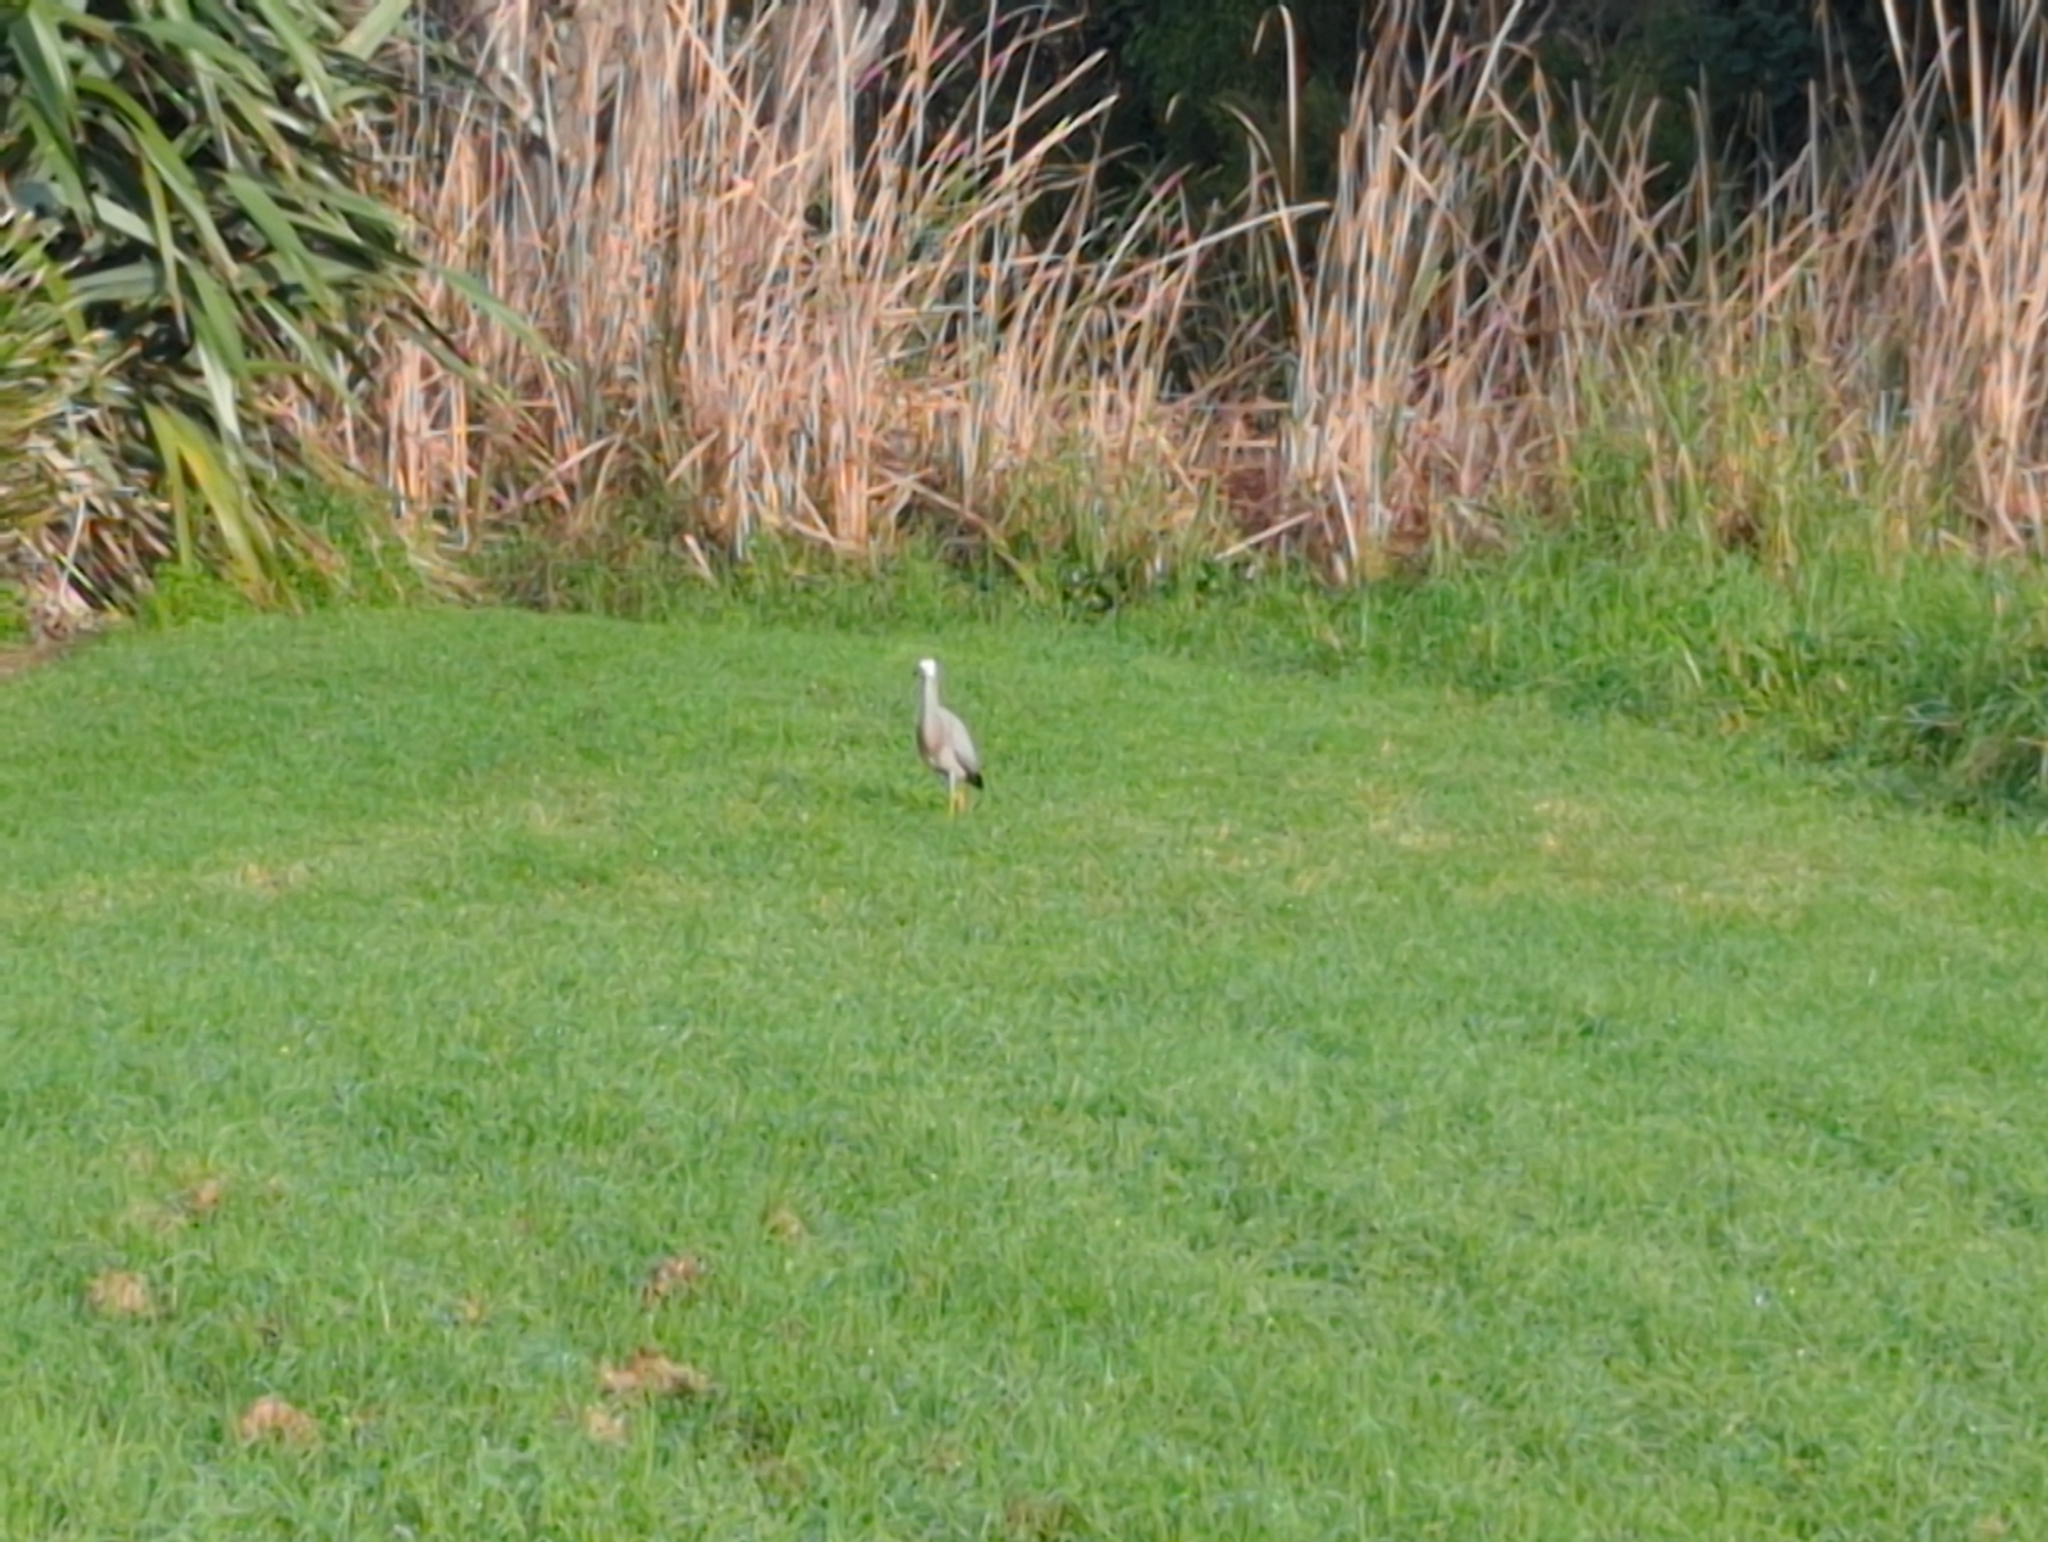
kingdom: Animalia
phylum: Chordata
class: Aves
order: Pelecaniformes
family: Ardeidae
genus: Egretta
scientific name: Egretta novaehollandiae
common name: White-faced heron
